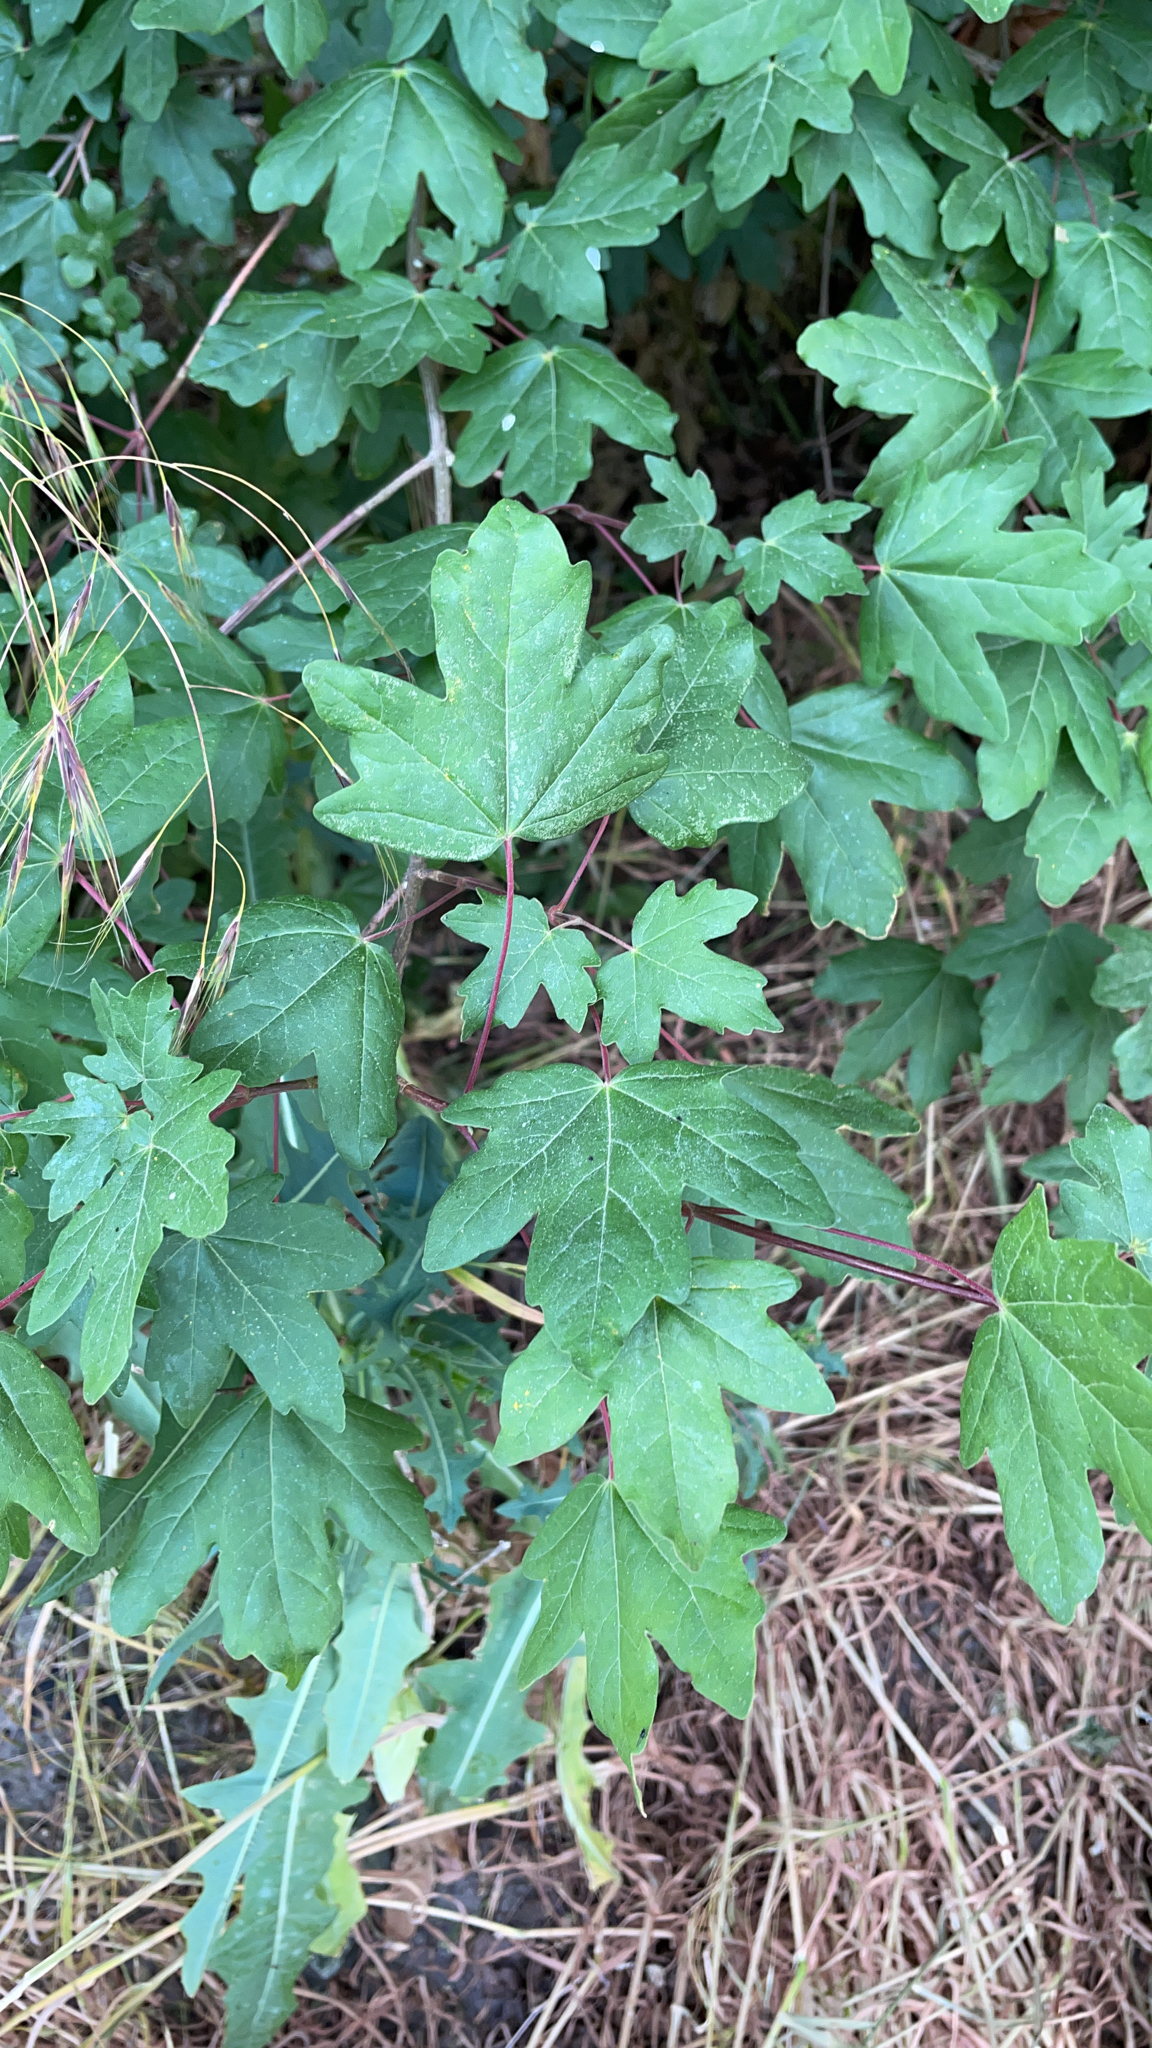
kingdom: Plantae
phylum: Tracheophyta
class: Magnoliopsida
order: Sapindales
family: Sapindaceae
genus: Acer
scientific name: Acer campestre
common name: Field maple
